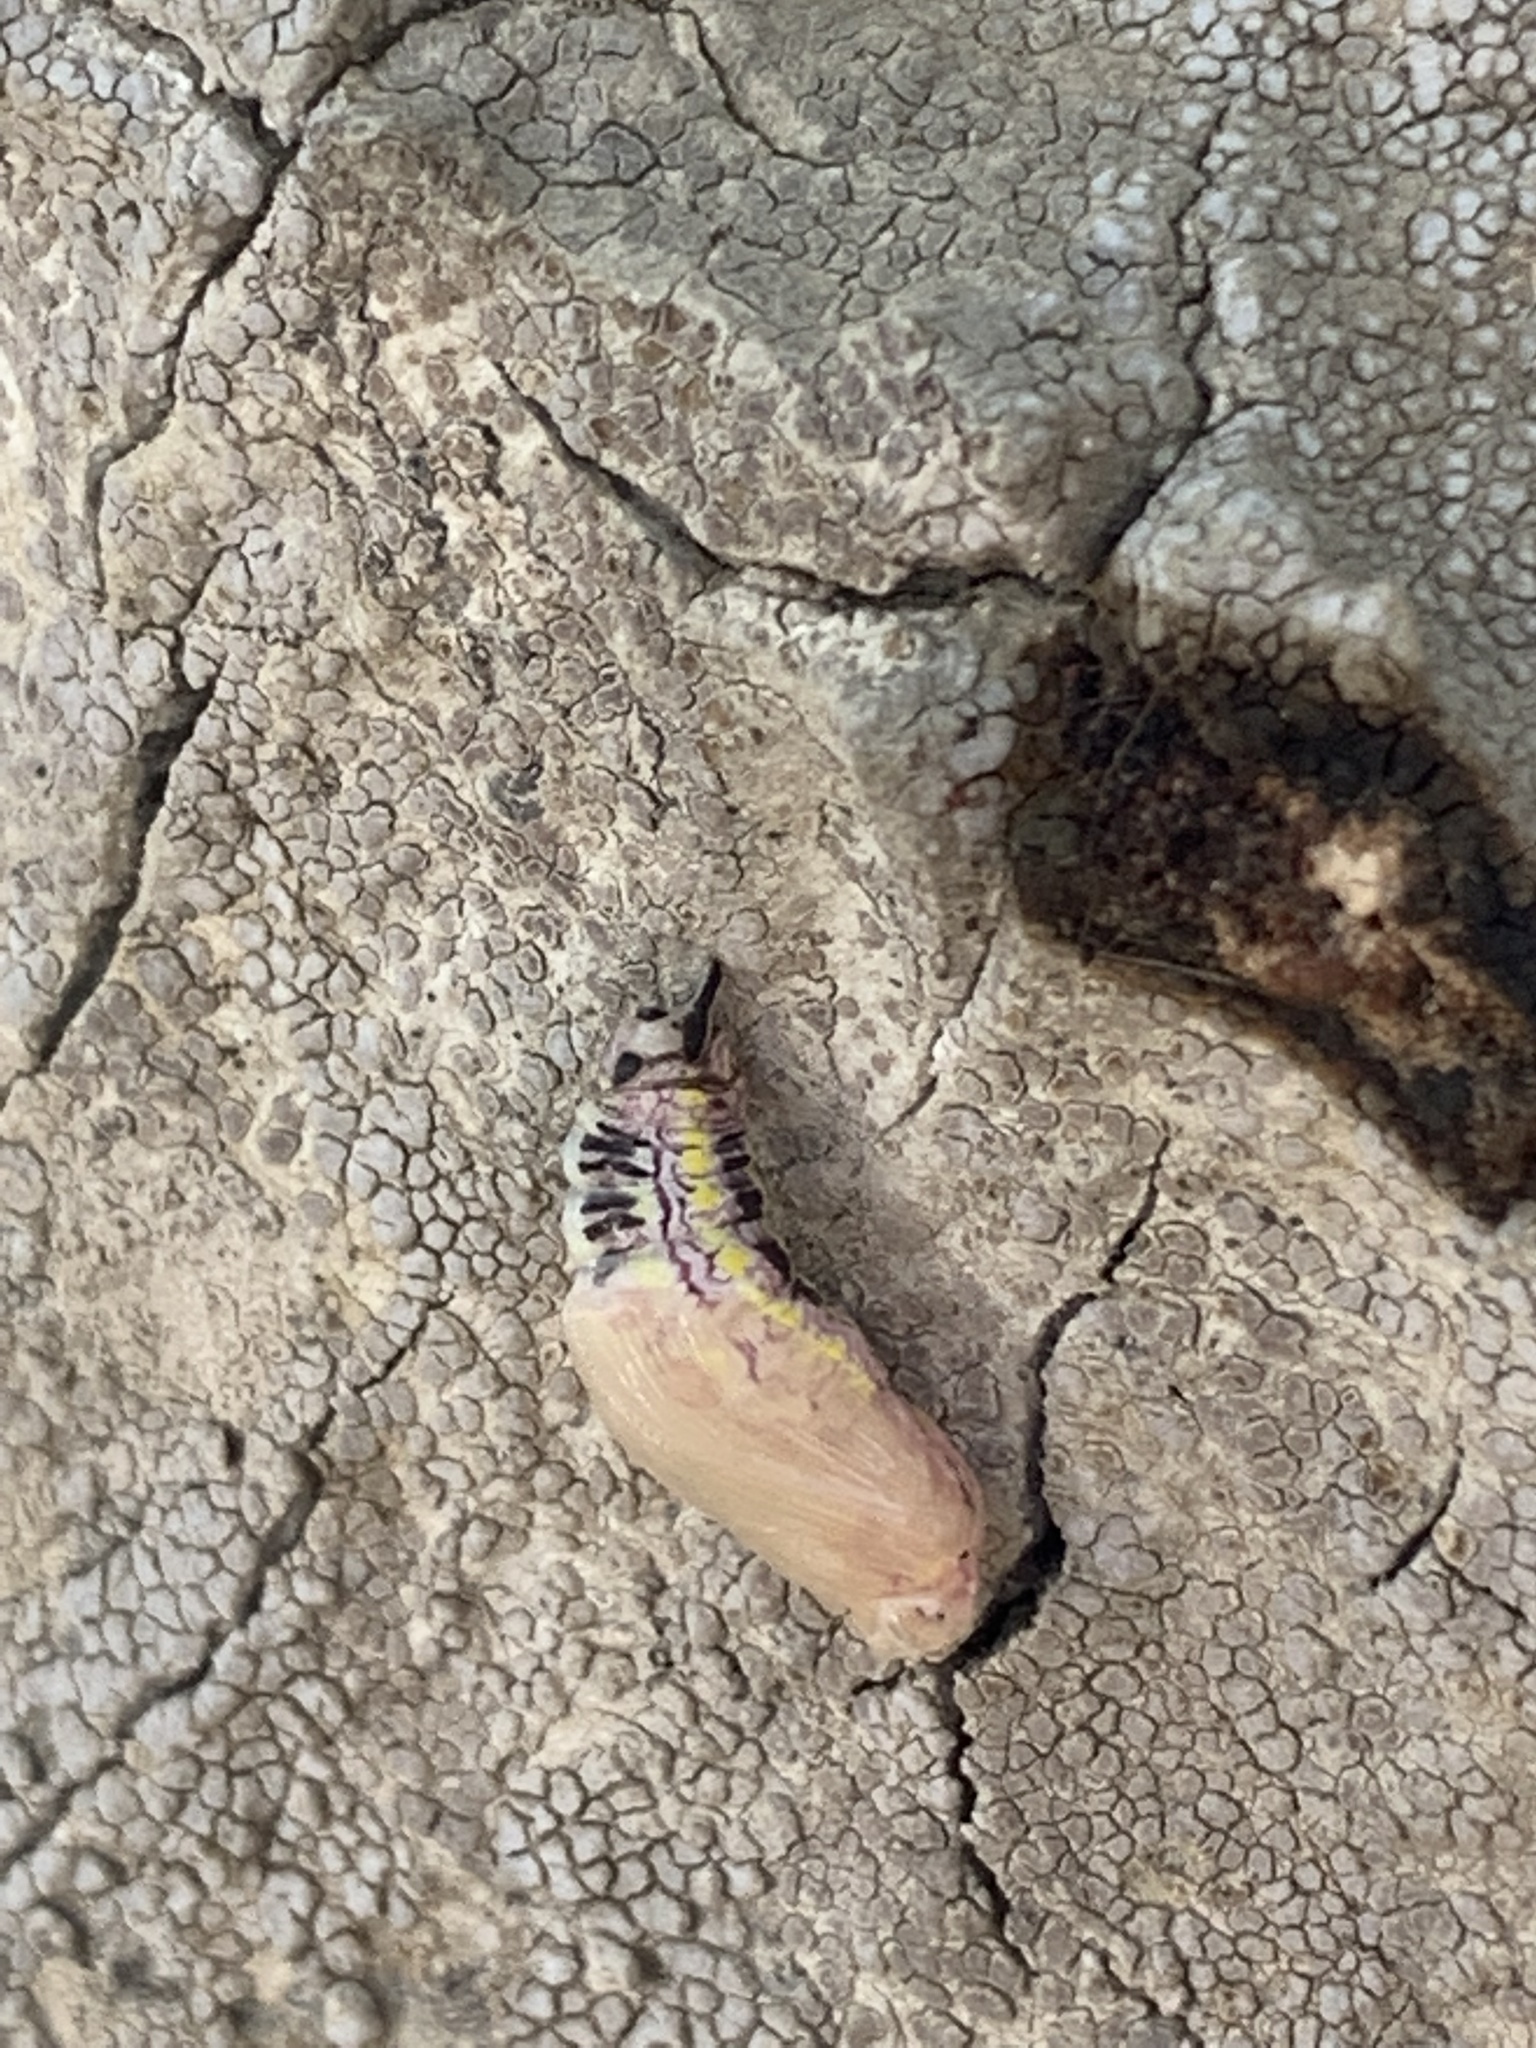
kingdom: Animalia
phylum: Arthropoda
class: Insecta
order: Lepidoptera
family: Notodontidae
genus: Phryganidia
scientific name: Phryganidia californica
